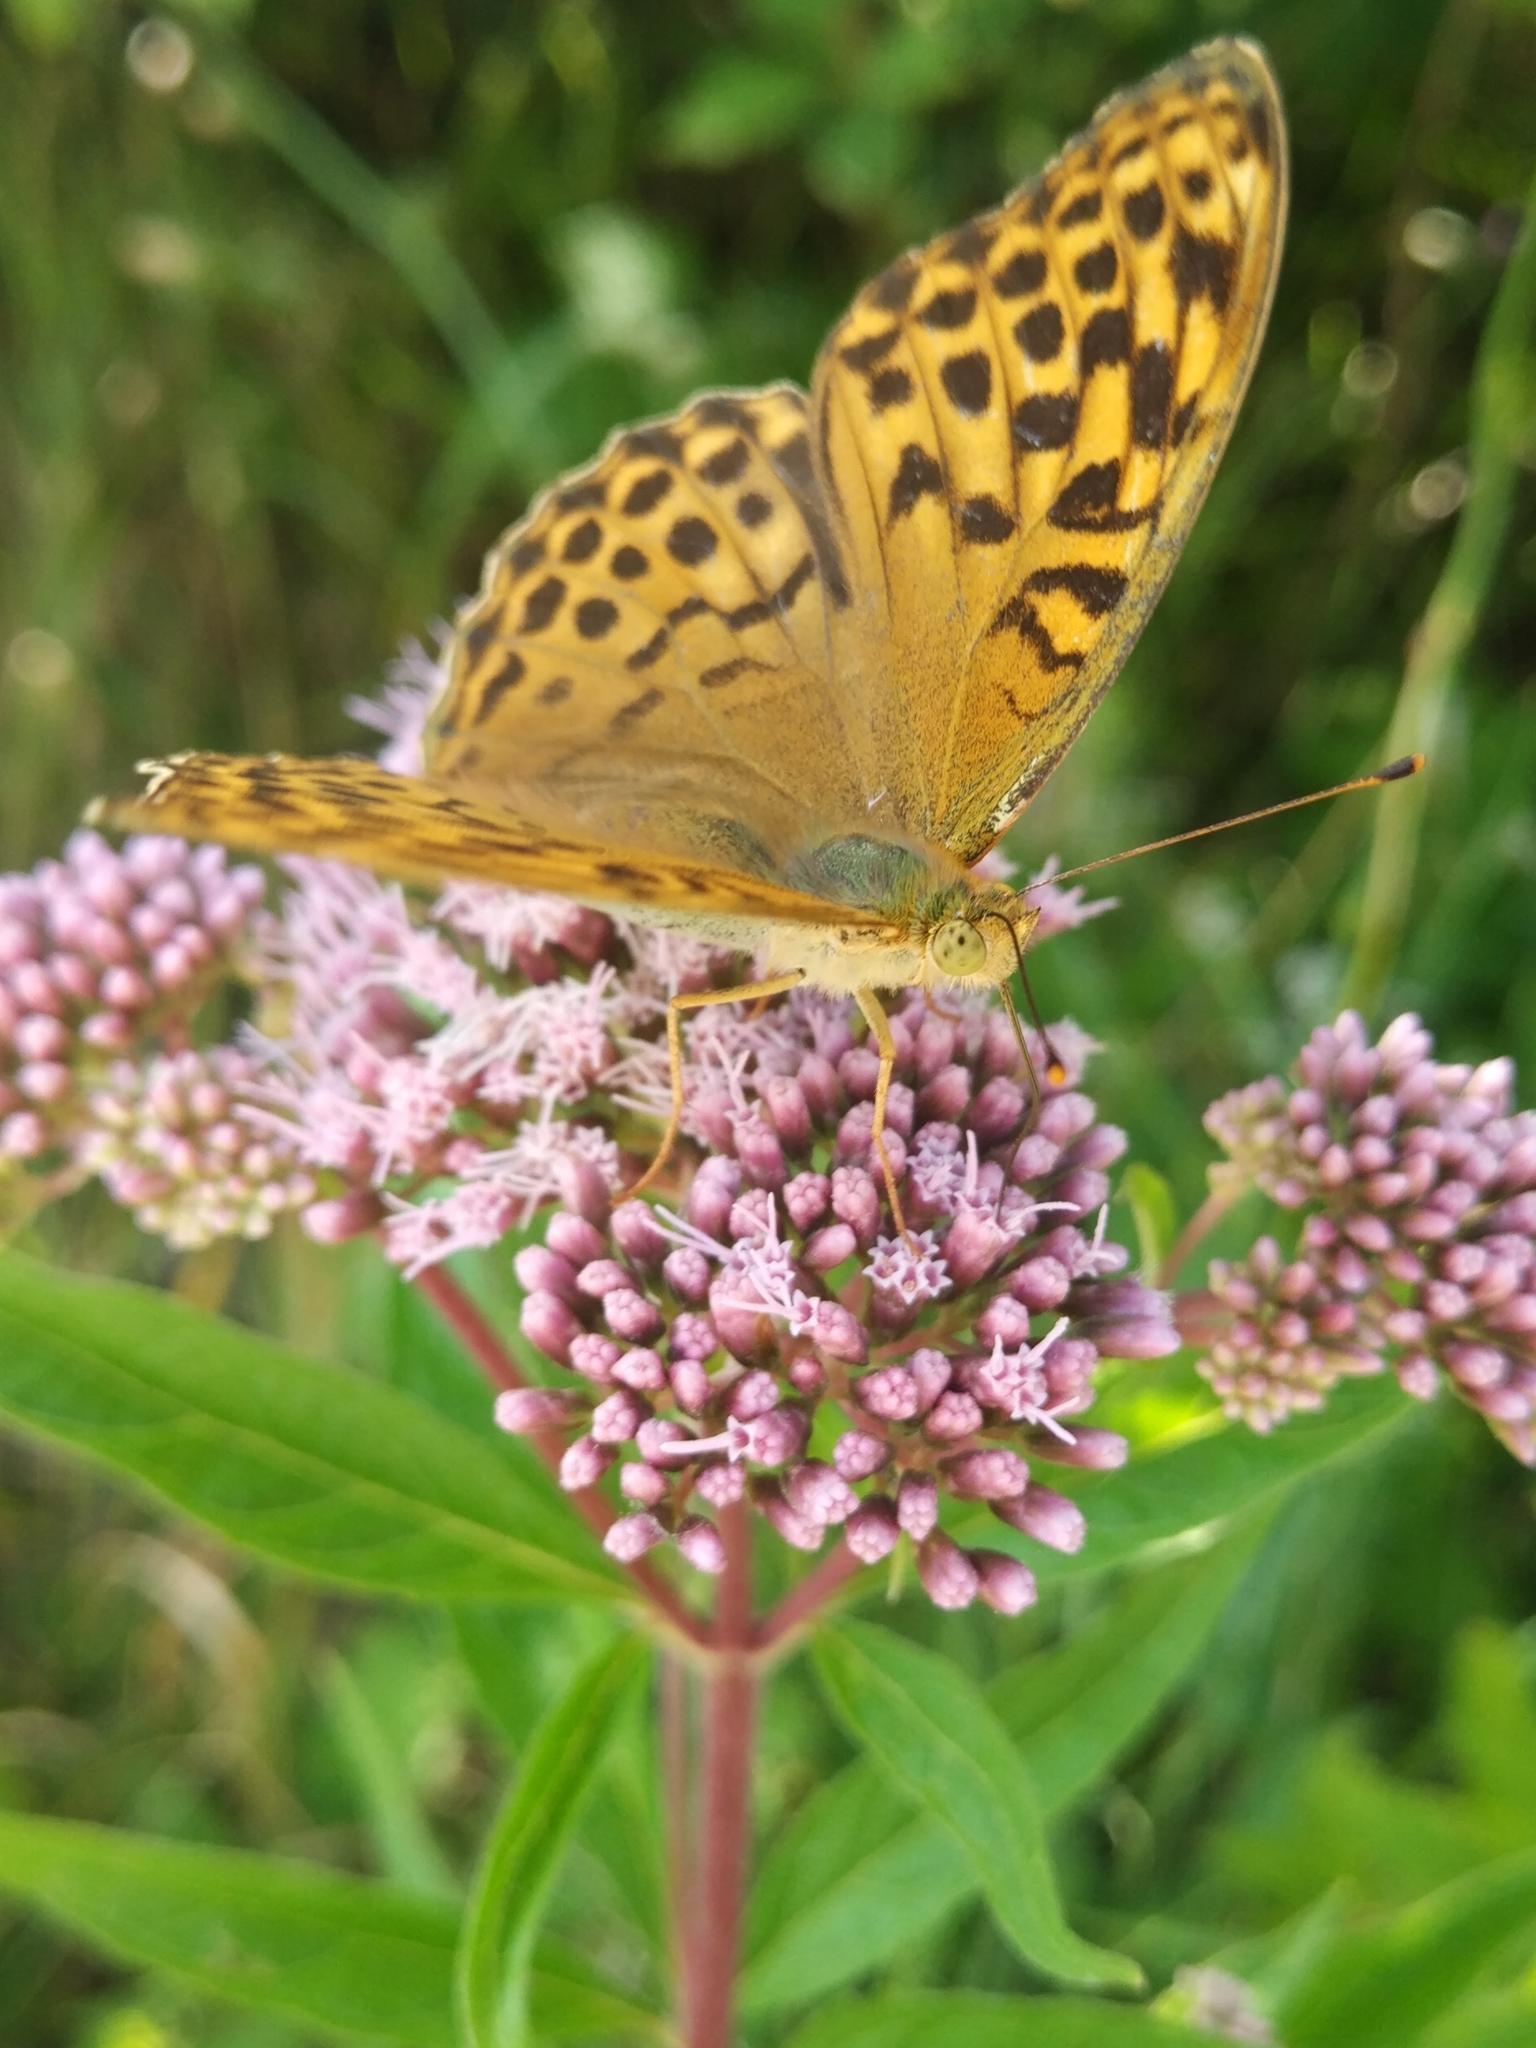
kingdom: Animalia
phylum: Arthropoda
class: Insecta
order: Lepidoptera
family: Nymphalidae
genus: Argynnis
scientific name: Argynnis paphia
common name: Silver-washed fritillary
